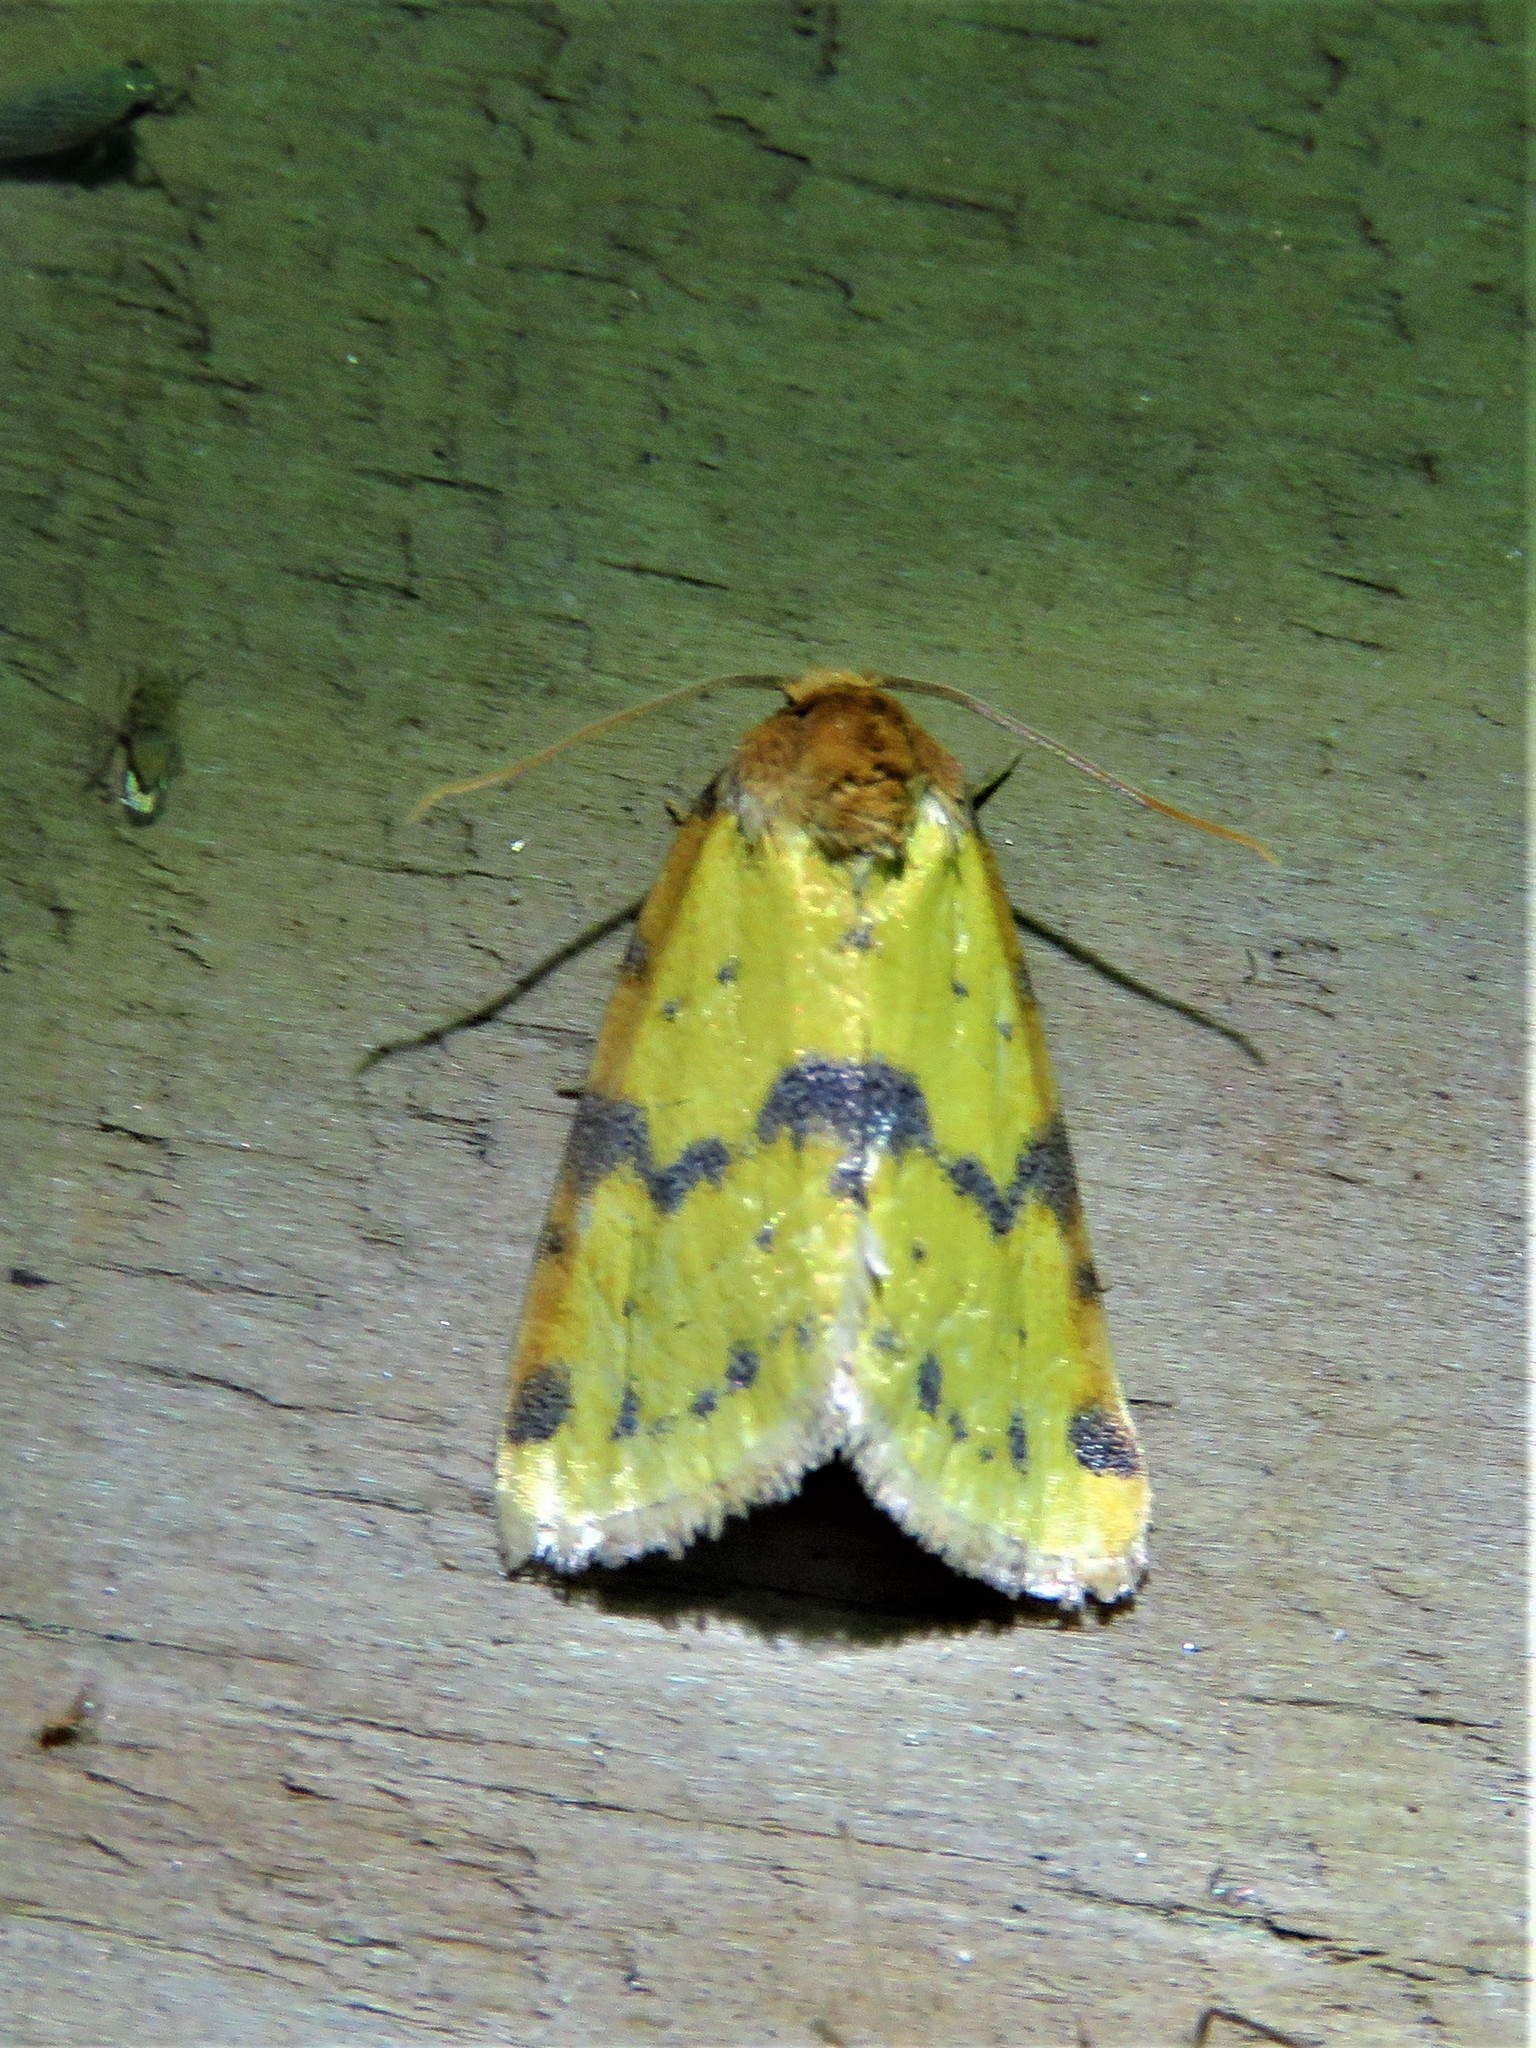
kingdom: Animalia
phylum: Arthropoda
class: Insecta
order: Lepidoptera
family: Noctuidae
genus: Azenia
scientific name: Azenia obtusa
